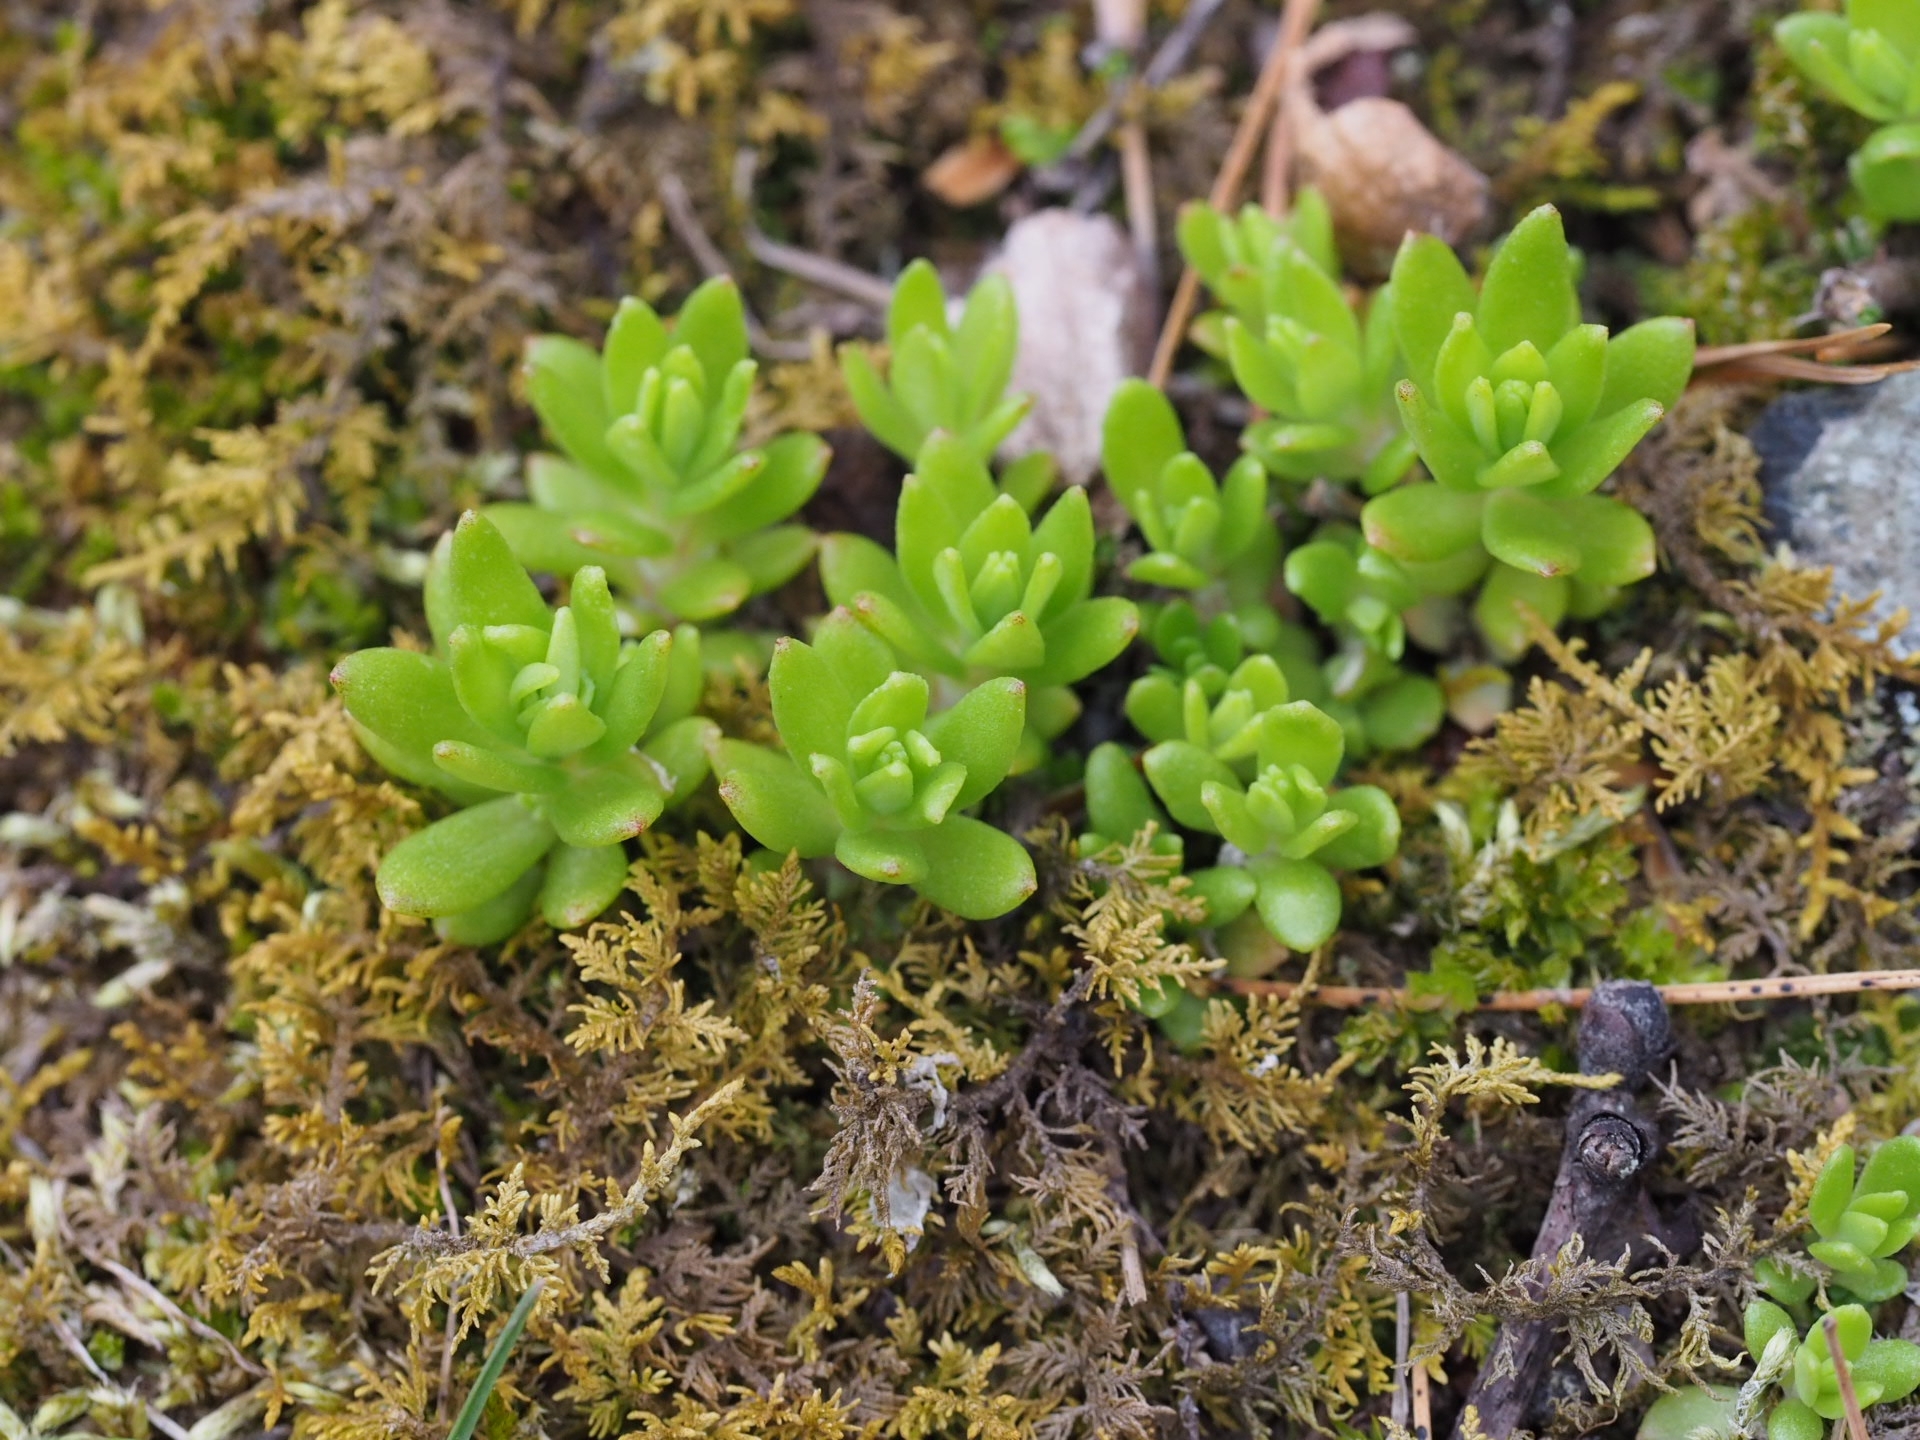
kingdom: Plantae
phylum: Tracheophyta
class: Magnoliopsida
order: Saxifragales
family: Crassulaceae
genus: Sedum
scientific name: Sedum sarmentosum
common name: Stringy stonecrop
